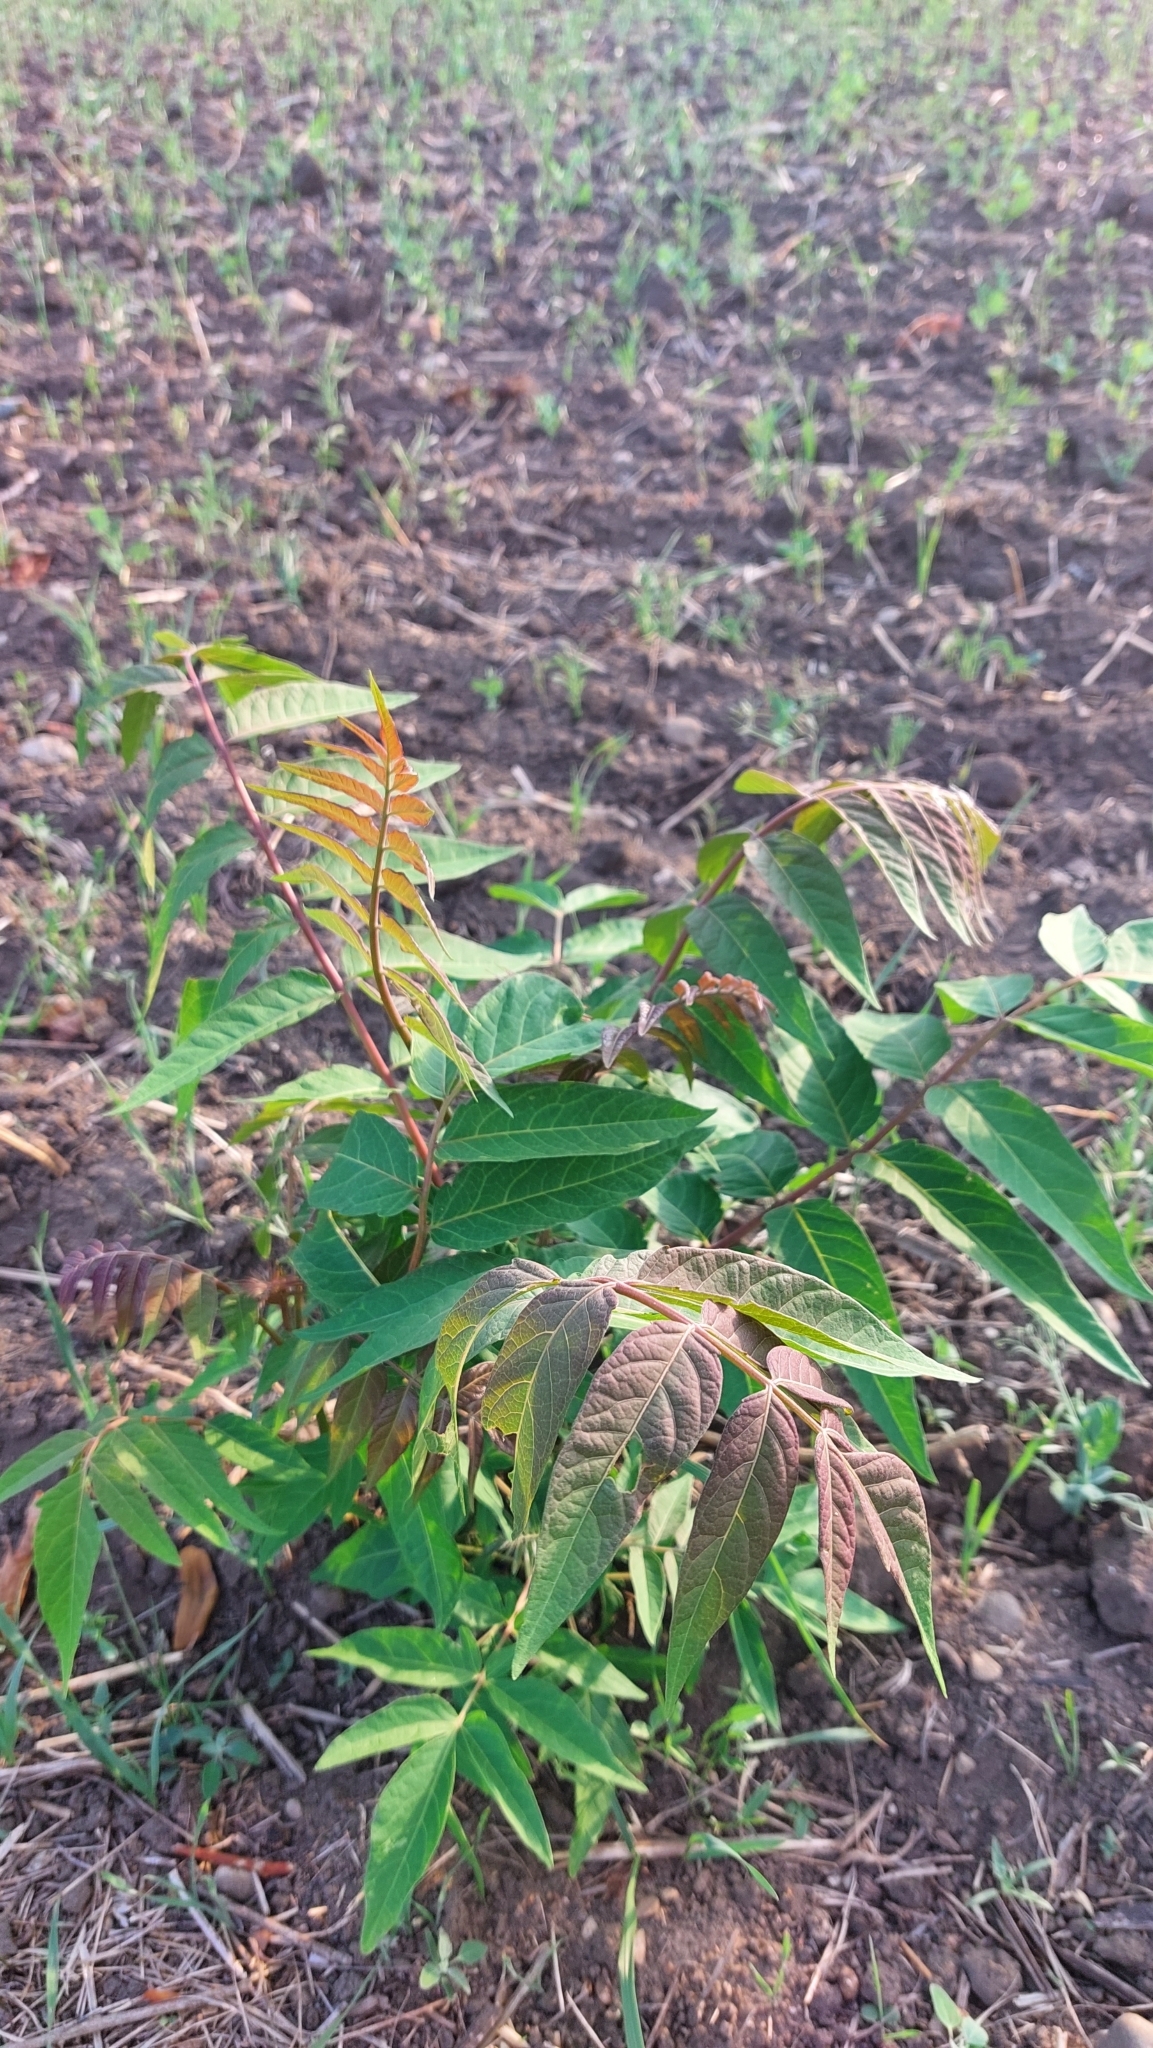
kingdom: Plantae
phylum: Tracheophyta
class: Magnoliopsida
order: Sapindales
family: Simaroubaceae
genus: Ailanthus
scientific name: Ailanthus altissima
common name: Tree-of-heaven
